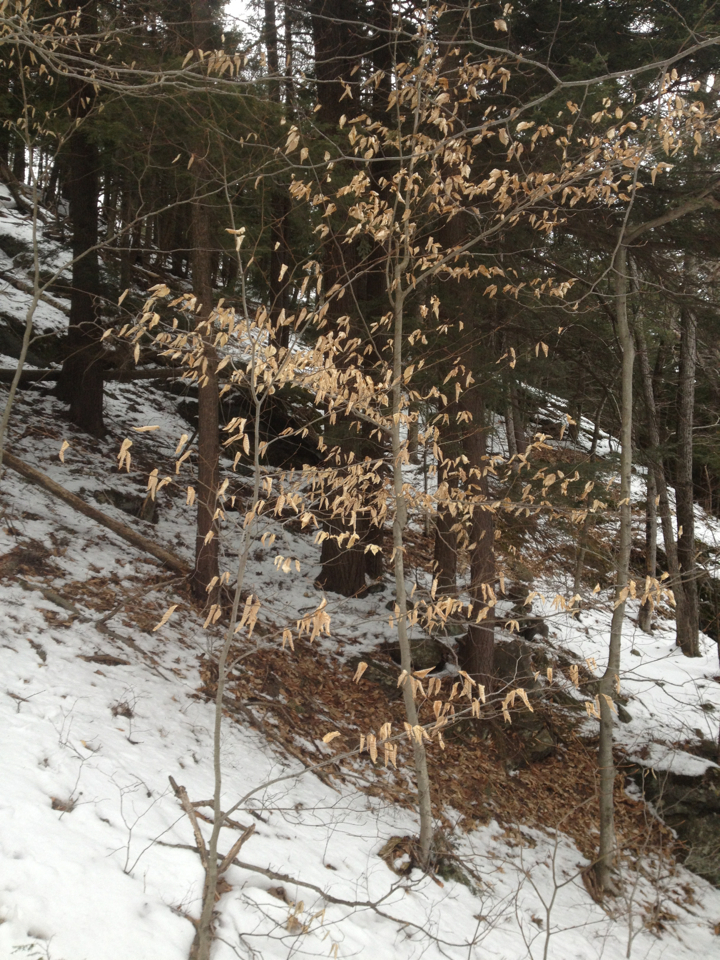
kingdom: Plantae
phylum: Tracheophyta
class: Magnoliopsida
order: Fagales
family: Fagaceae
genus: Fagus
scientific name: Fagus grandifolia
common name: American beech
